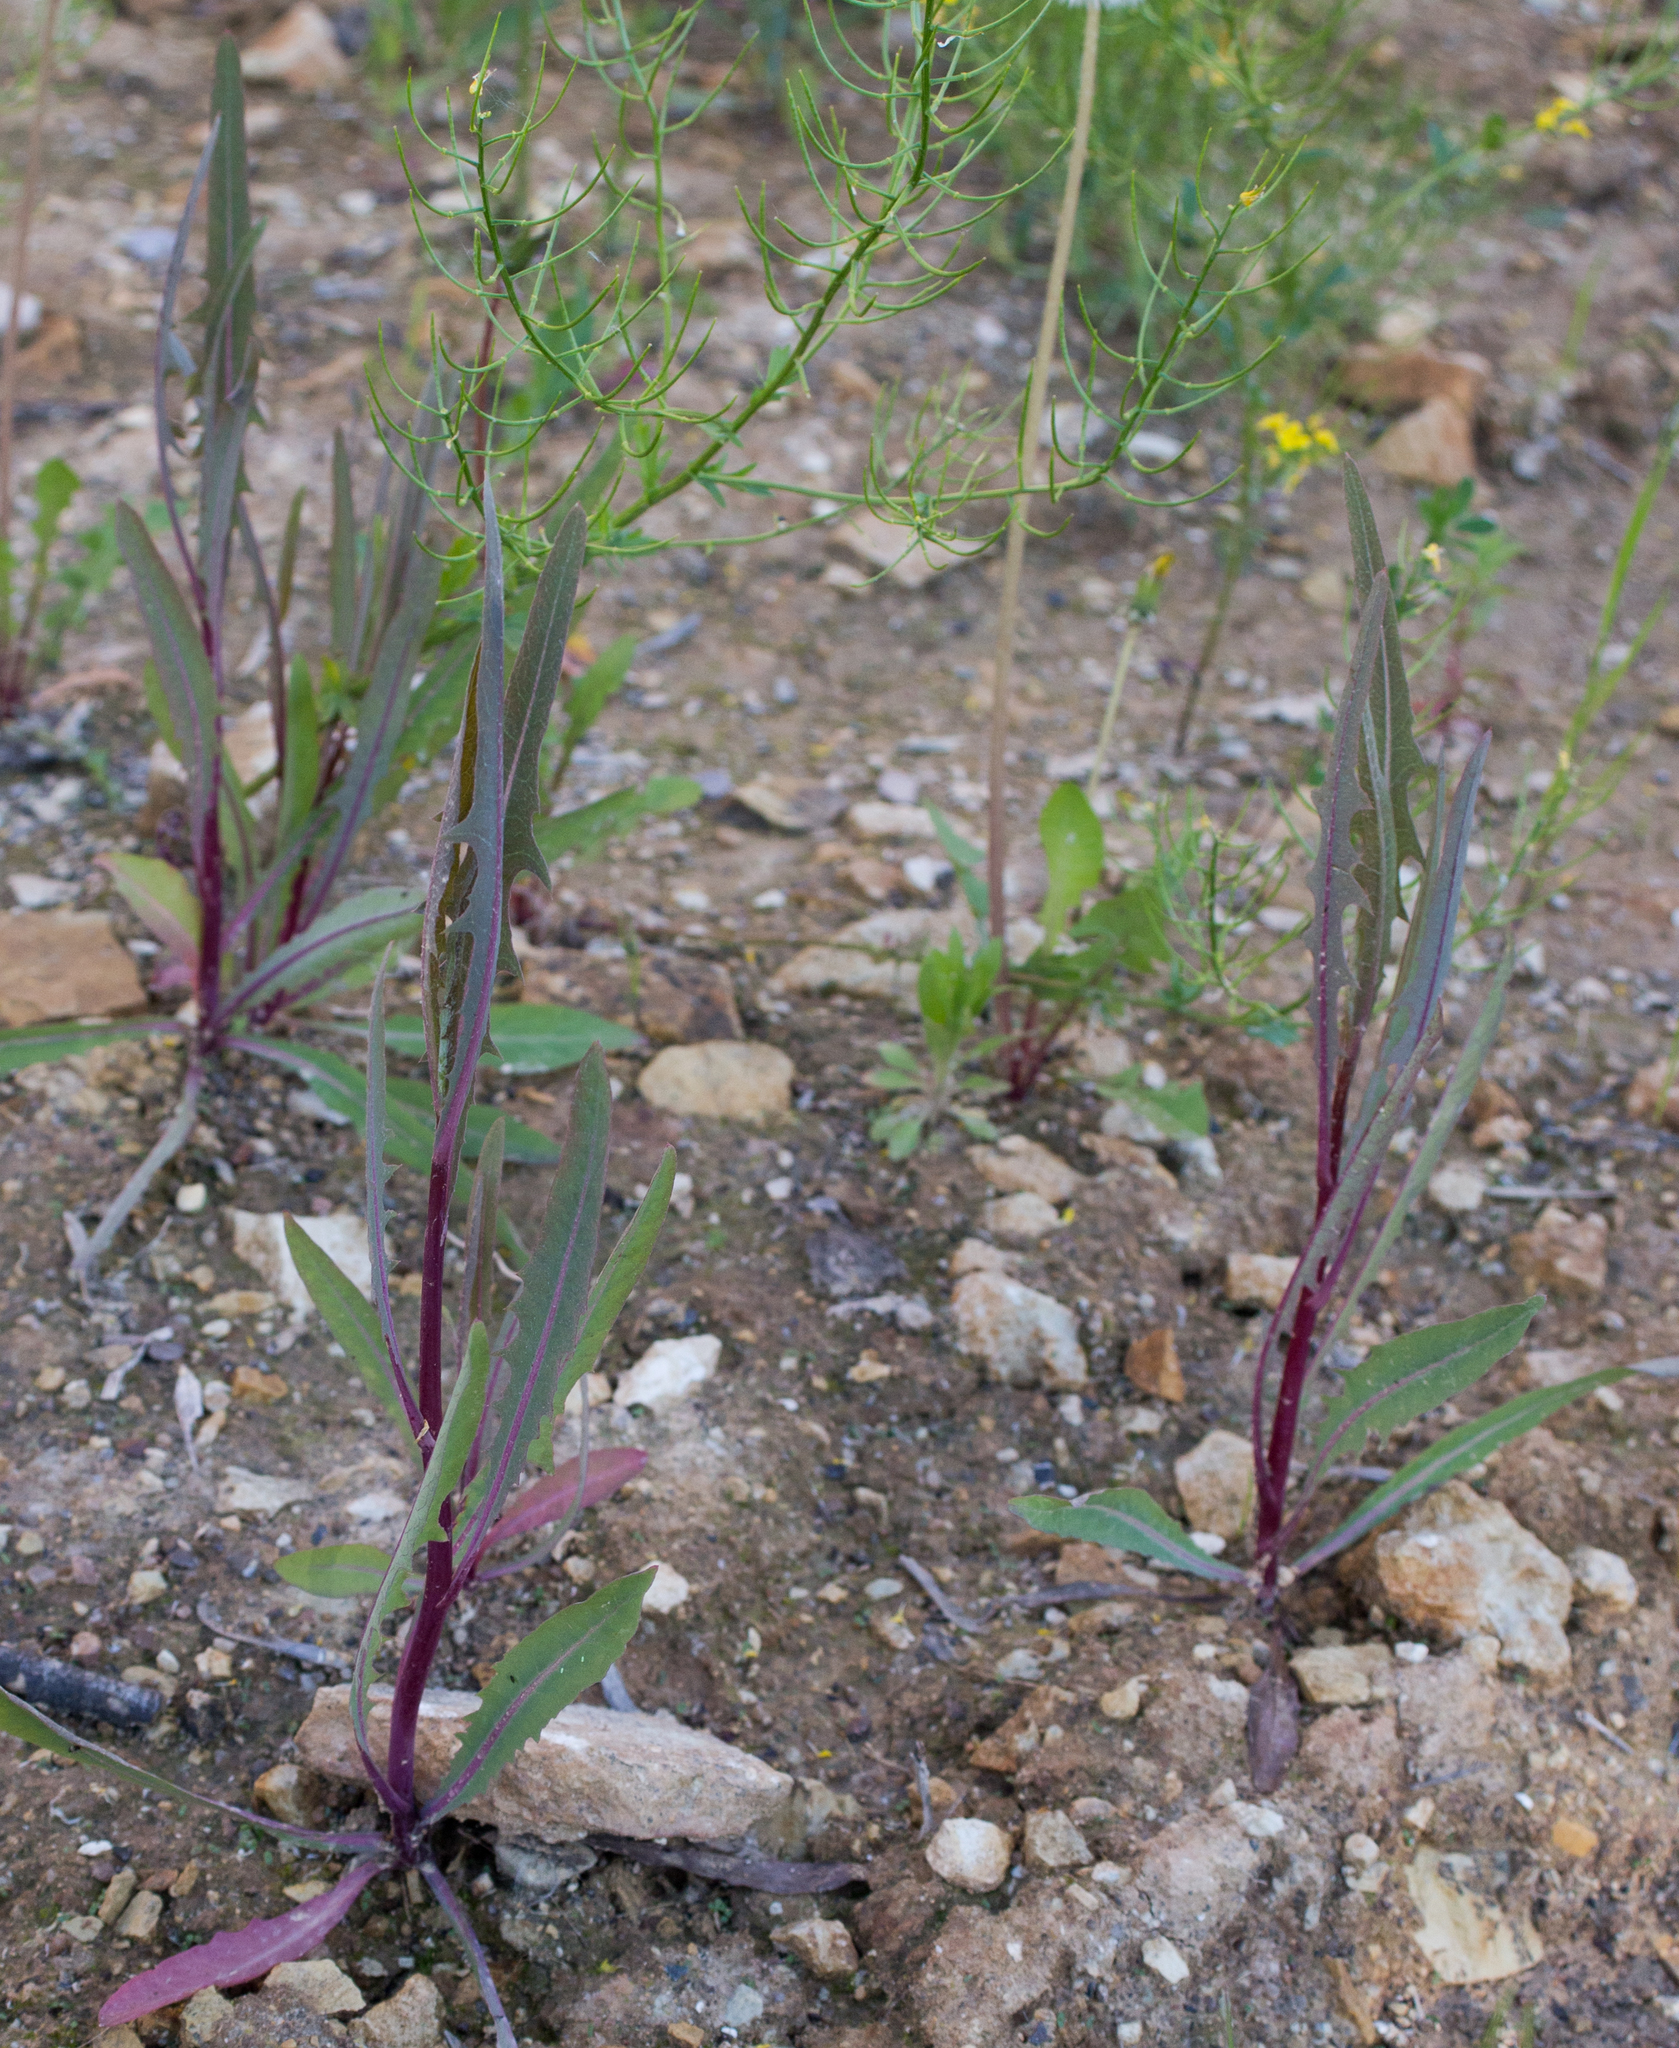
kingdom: Plantae
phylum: Tracheophyta
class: Magnoliopsida
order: Asterales
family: Asteraceae
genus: Lactuca
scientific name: Lactuca tatarica
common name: Blue lettuce
